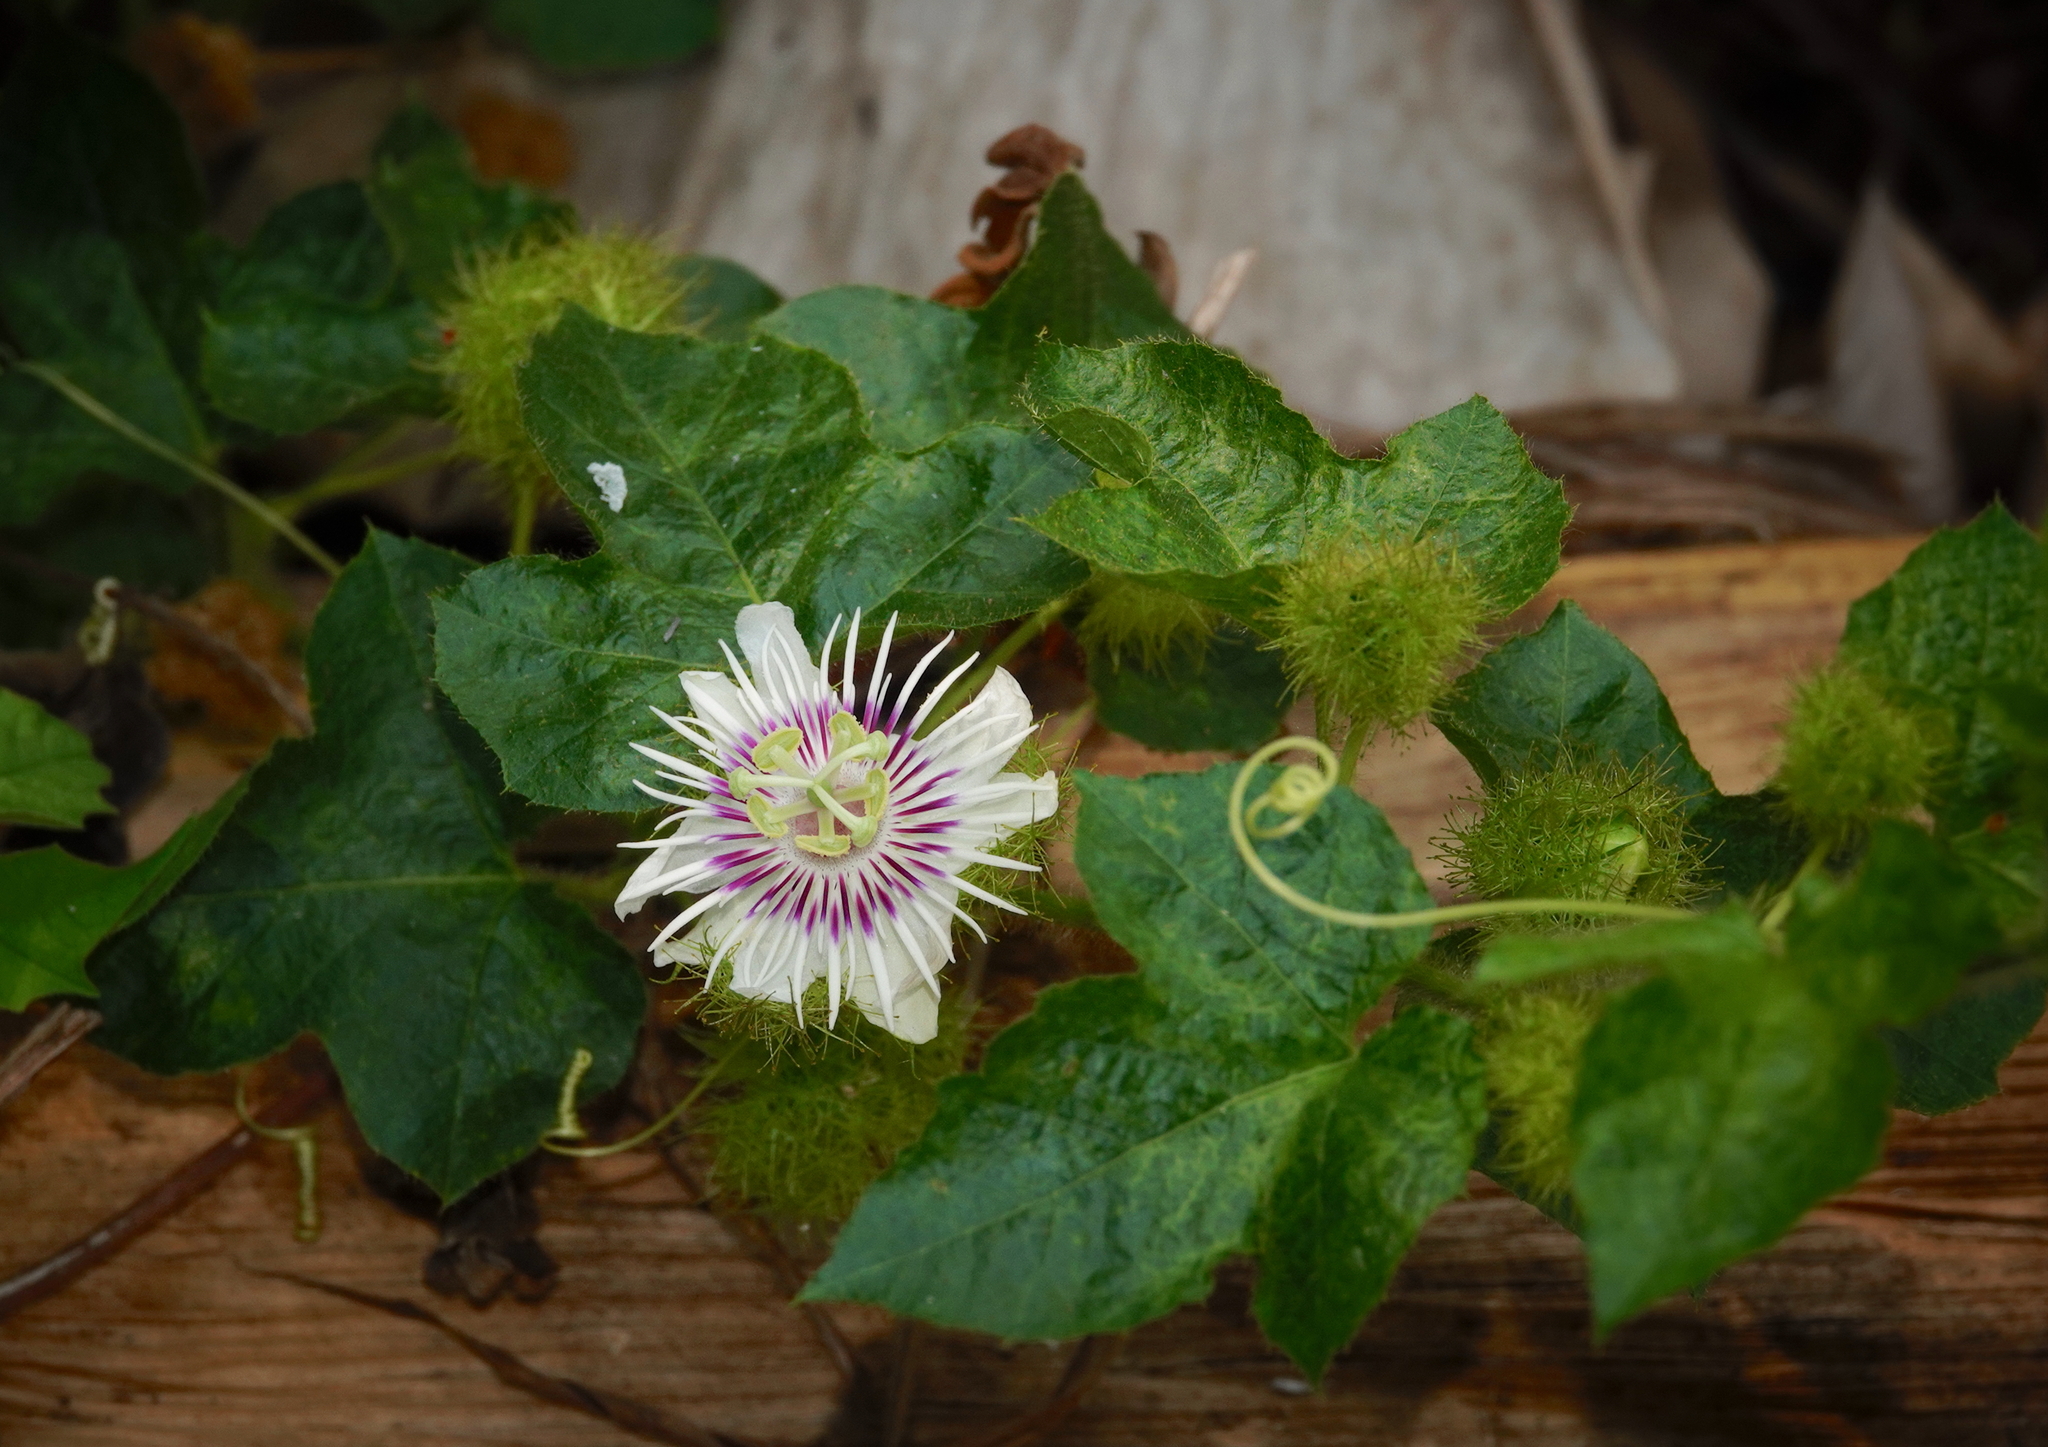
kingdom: Plantae
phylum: Tracheophyta
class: Magnoliopsida
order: Malpighiales
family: Passifloraceae
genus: Passiflora
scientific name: Passiflora vesicaria
